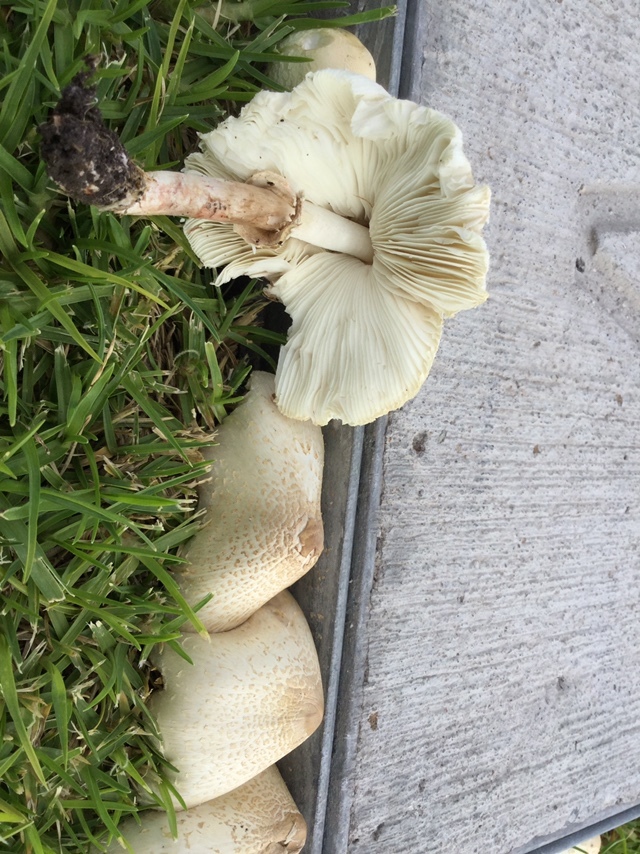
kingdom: Fungi
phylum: Basidiomycota
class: Agaricomycetes
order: Agaricales
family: Agaricaceae
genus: Chlorophyllum
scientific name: Chlorophyllum molybdites
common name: False parasol
